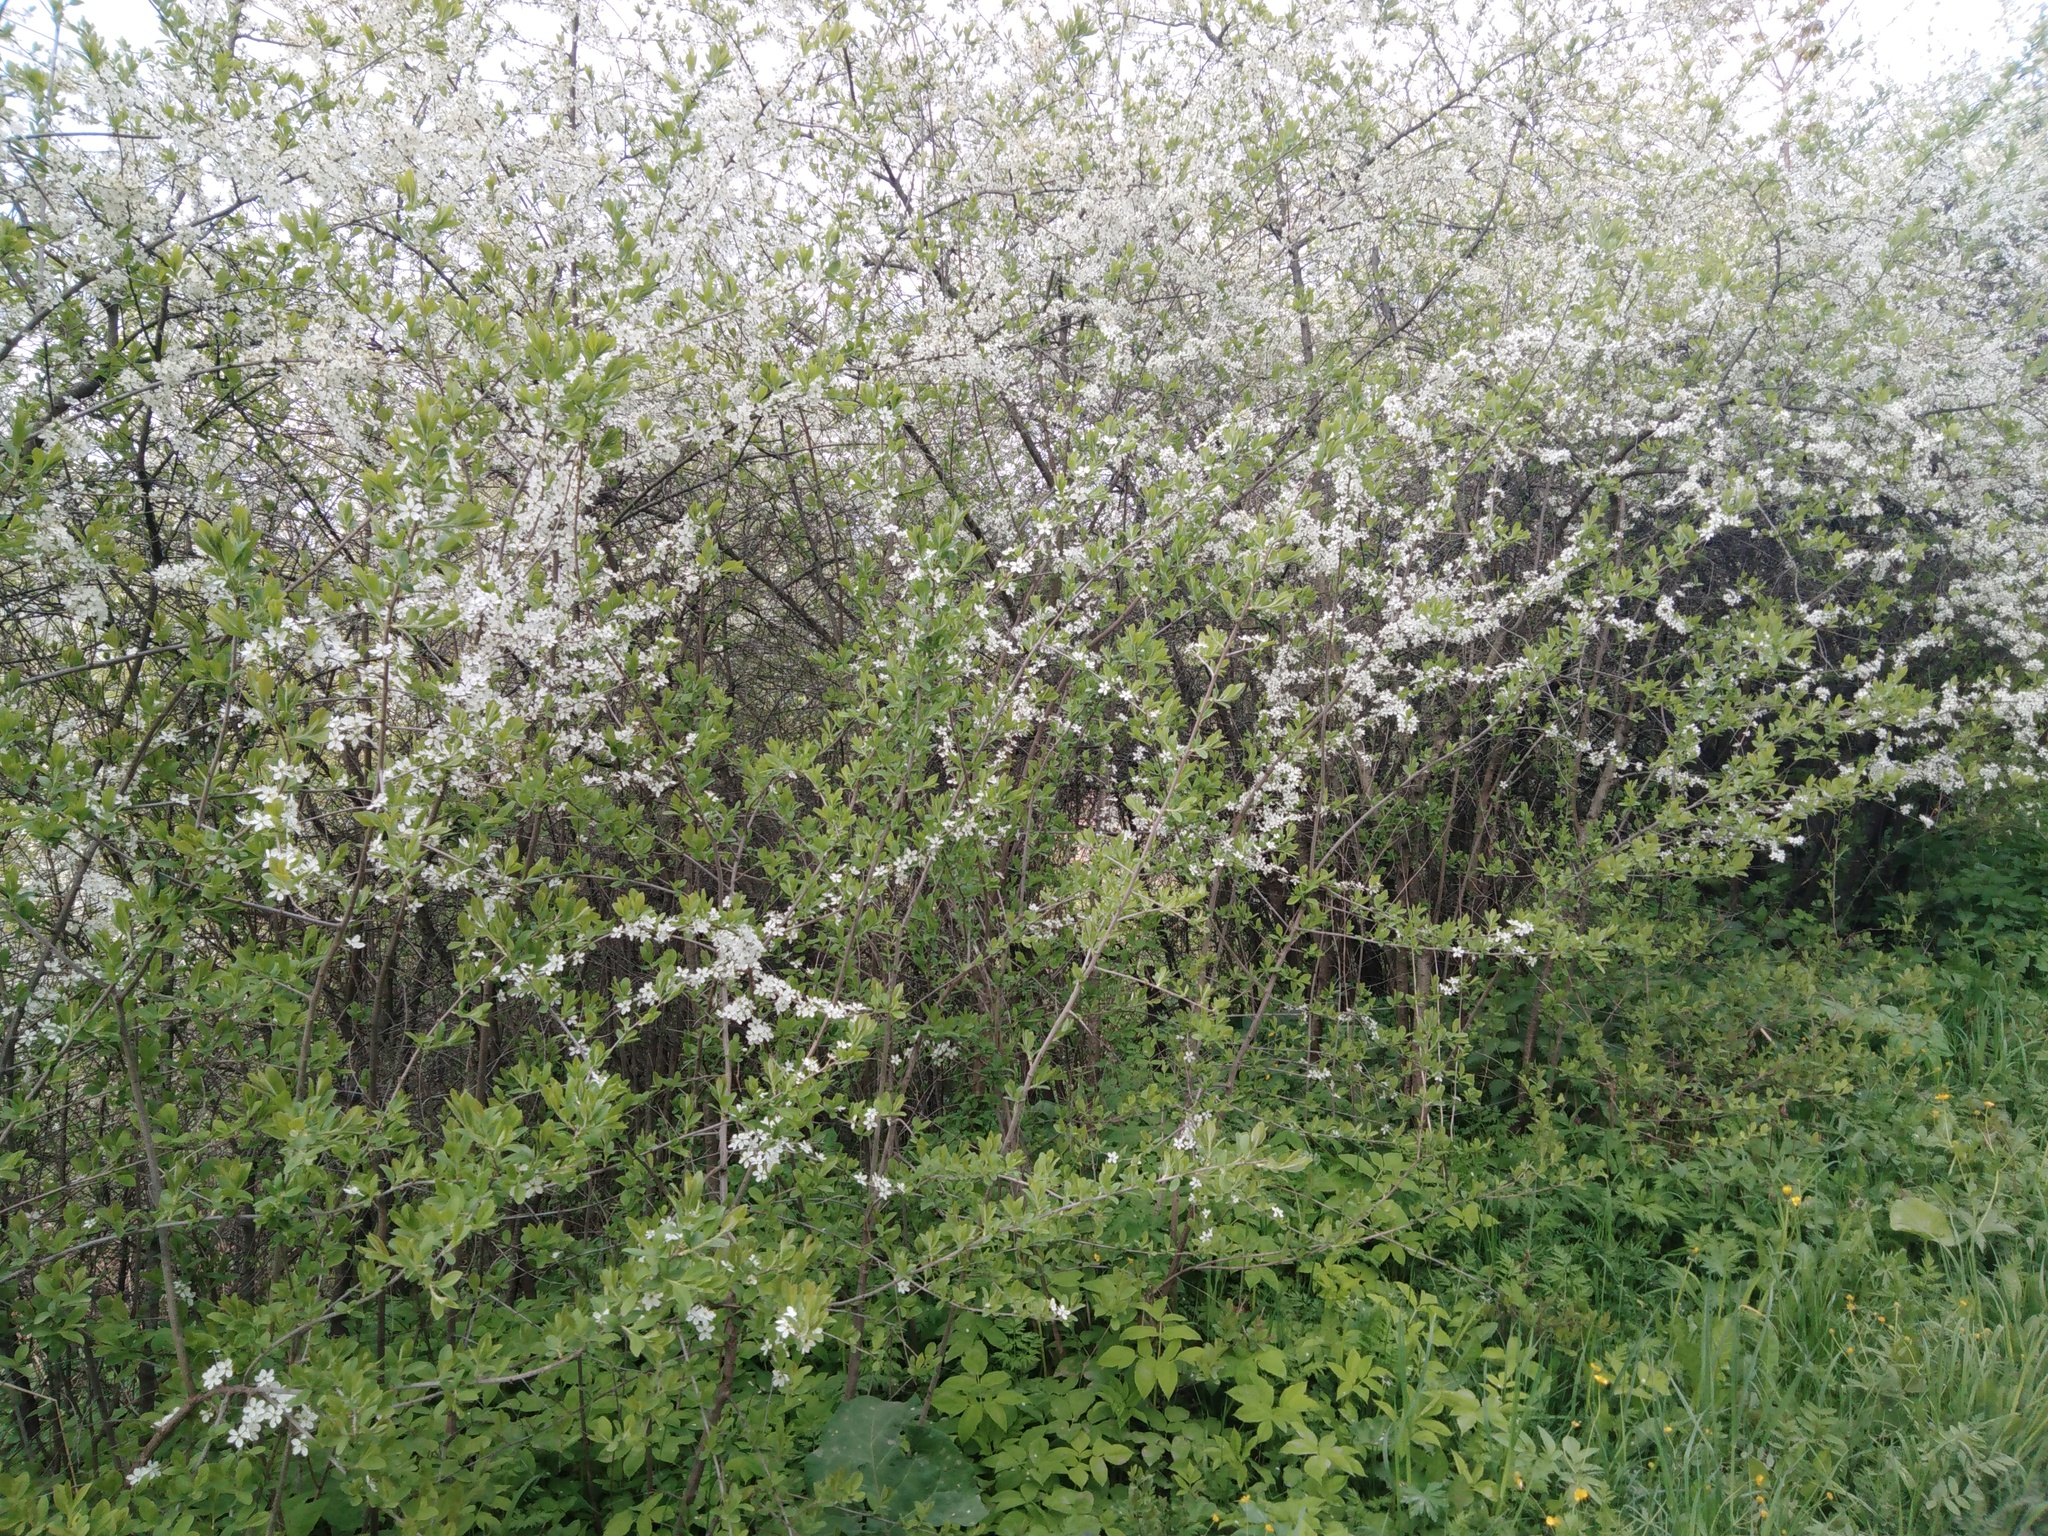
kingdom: Plantae
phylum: Tracheophyta
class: Magnoliopsida
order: Rosales
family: Rosaceae
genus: Prunus
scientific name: Prunus spinosa
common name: Blackthorn
